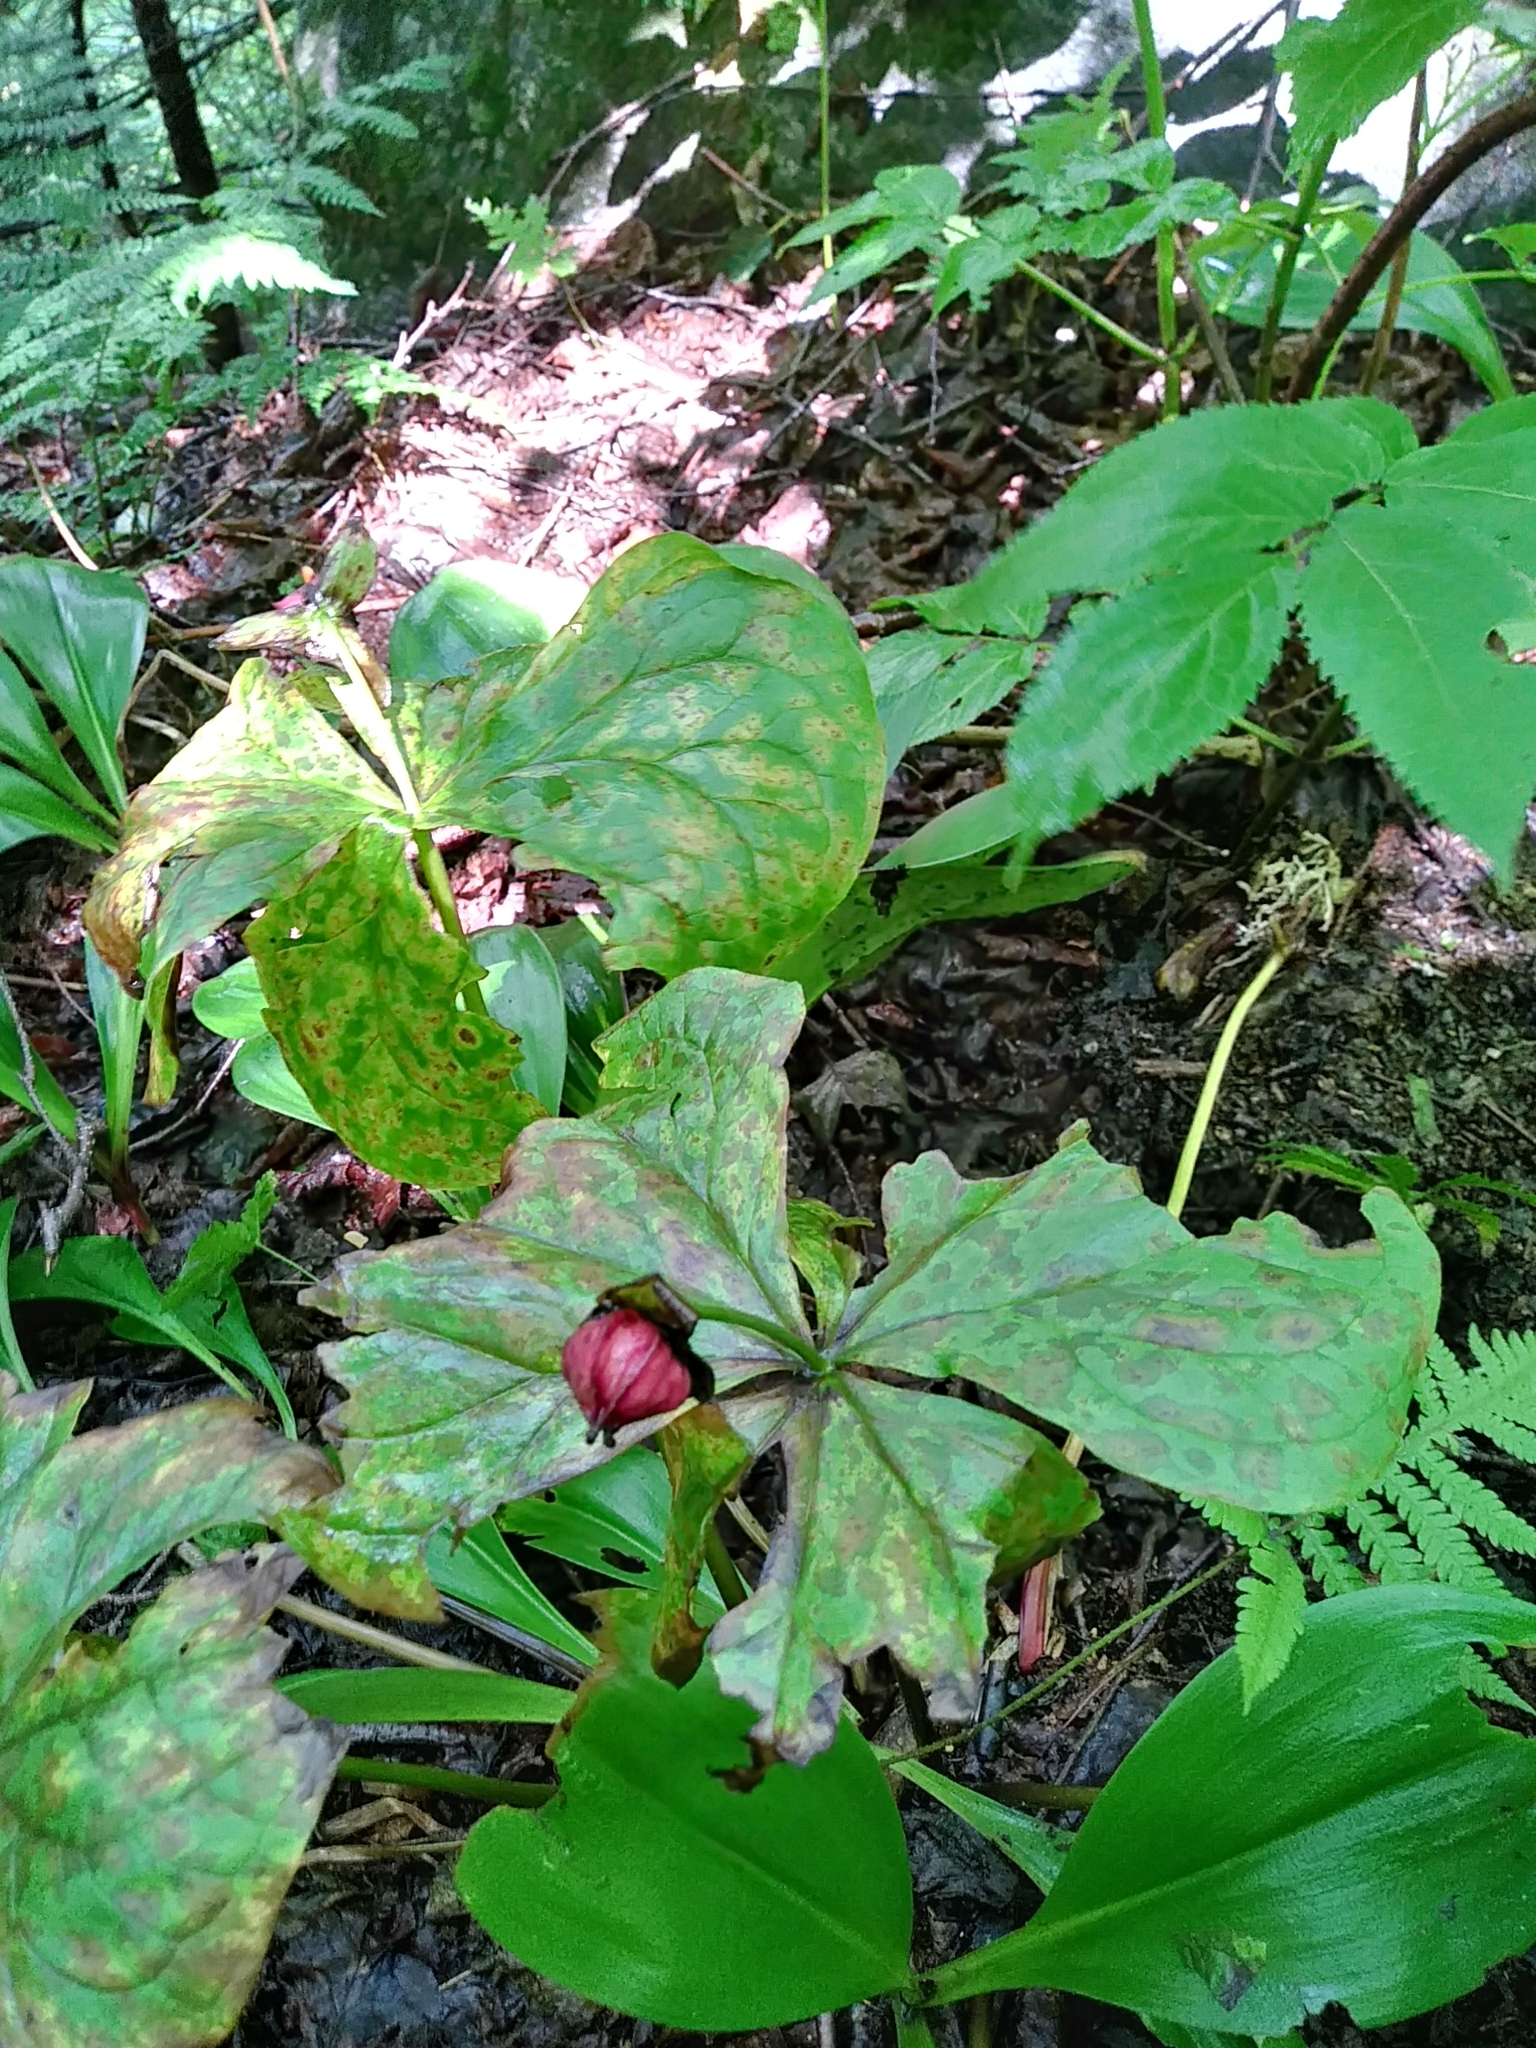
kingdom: Plantae
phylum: Tracheophyta
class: Liliopsida
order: Liliales
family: Melanthiaceae
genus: Trillium
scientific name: Trillium erectum
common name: Purple trillium
